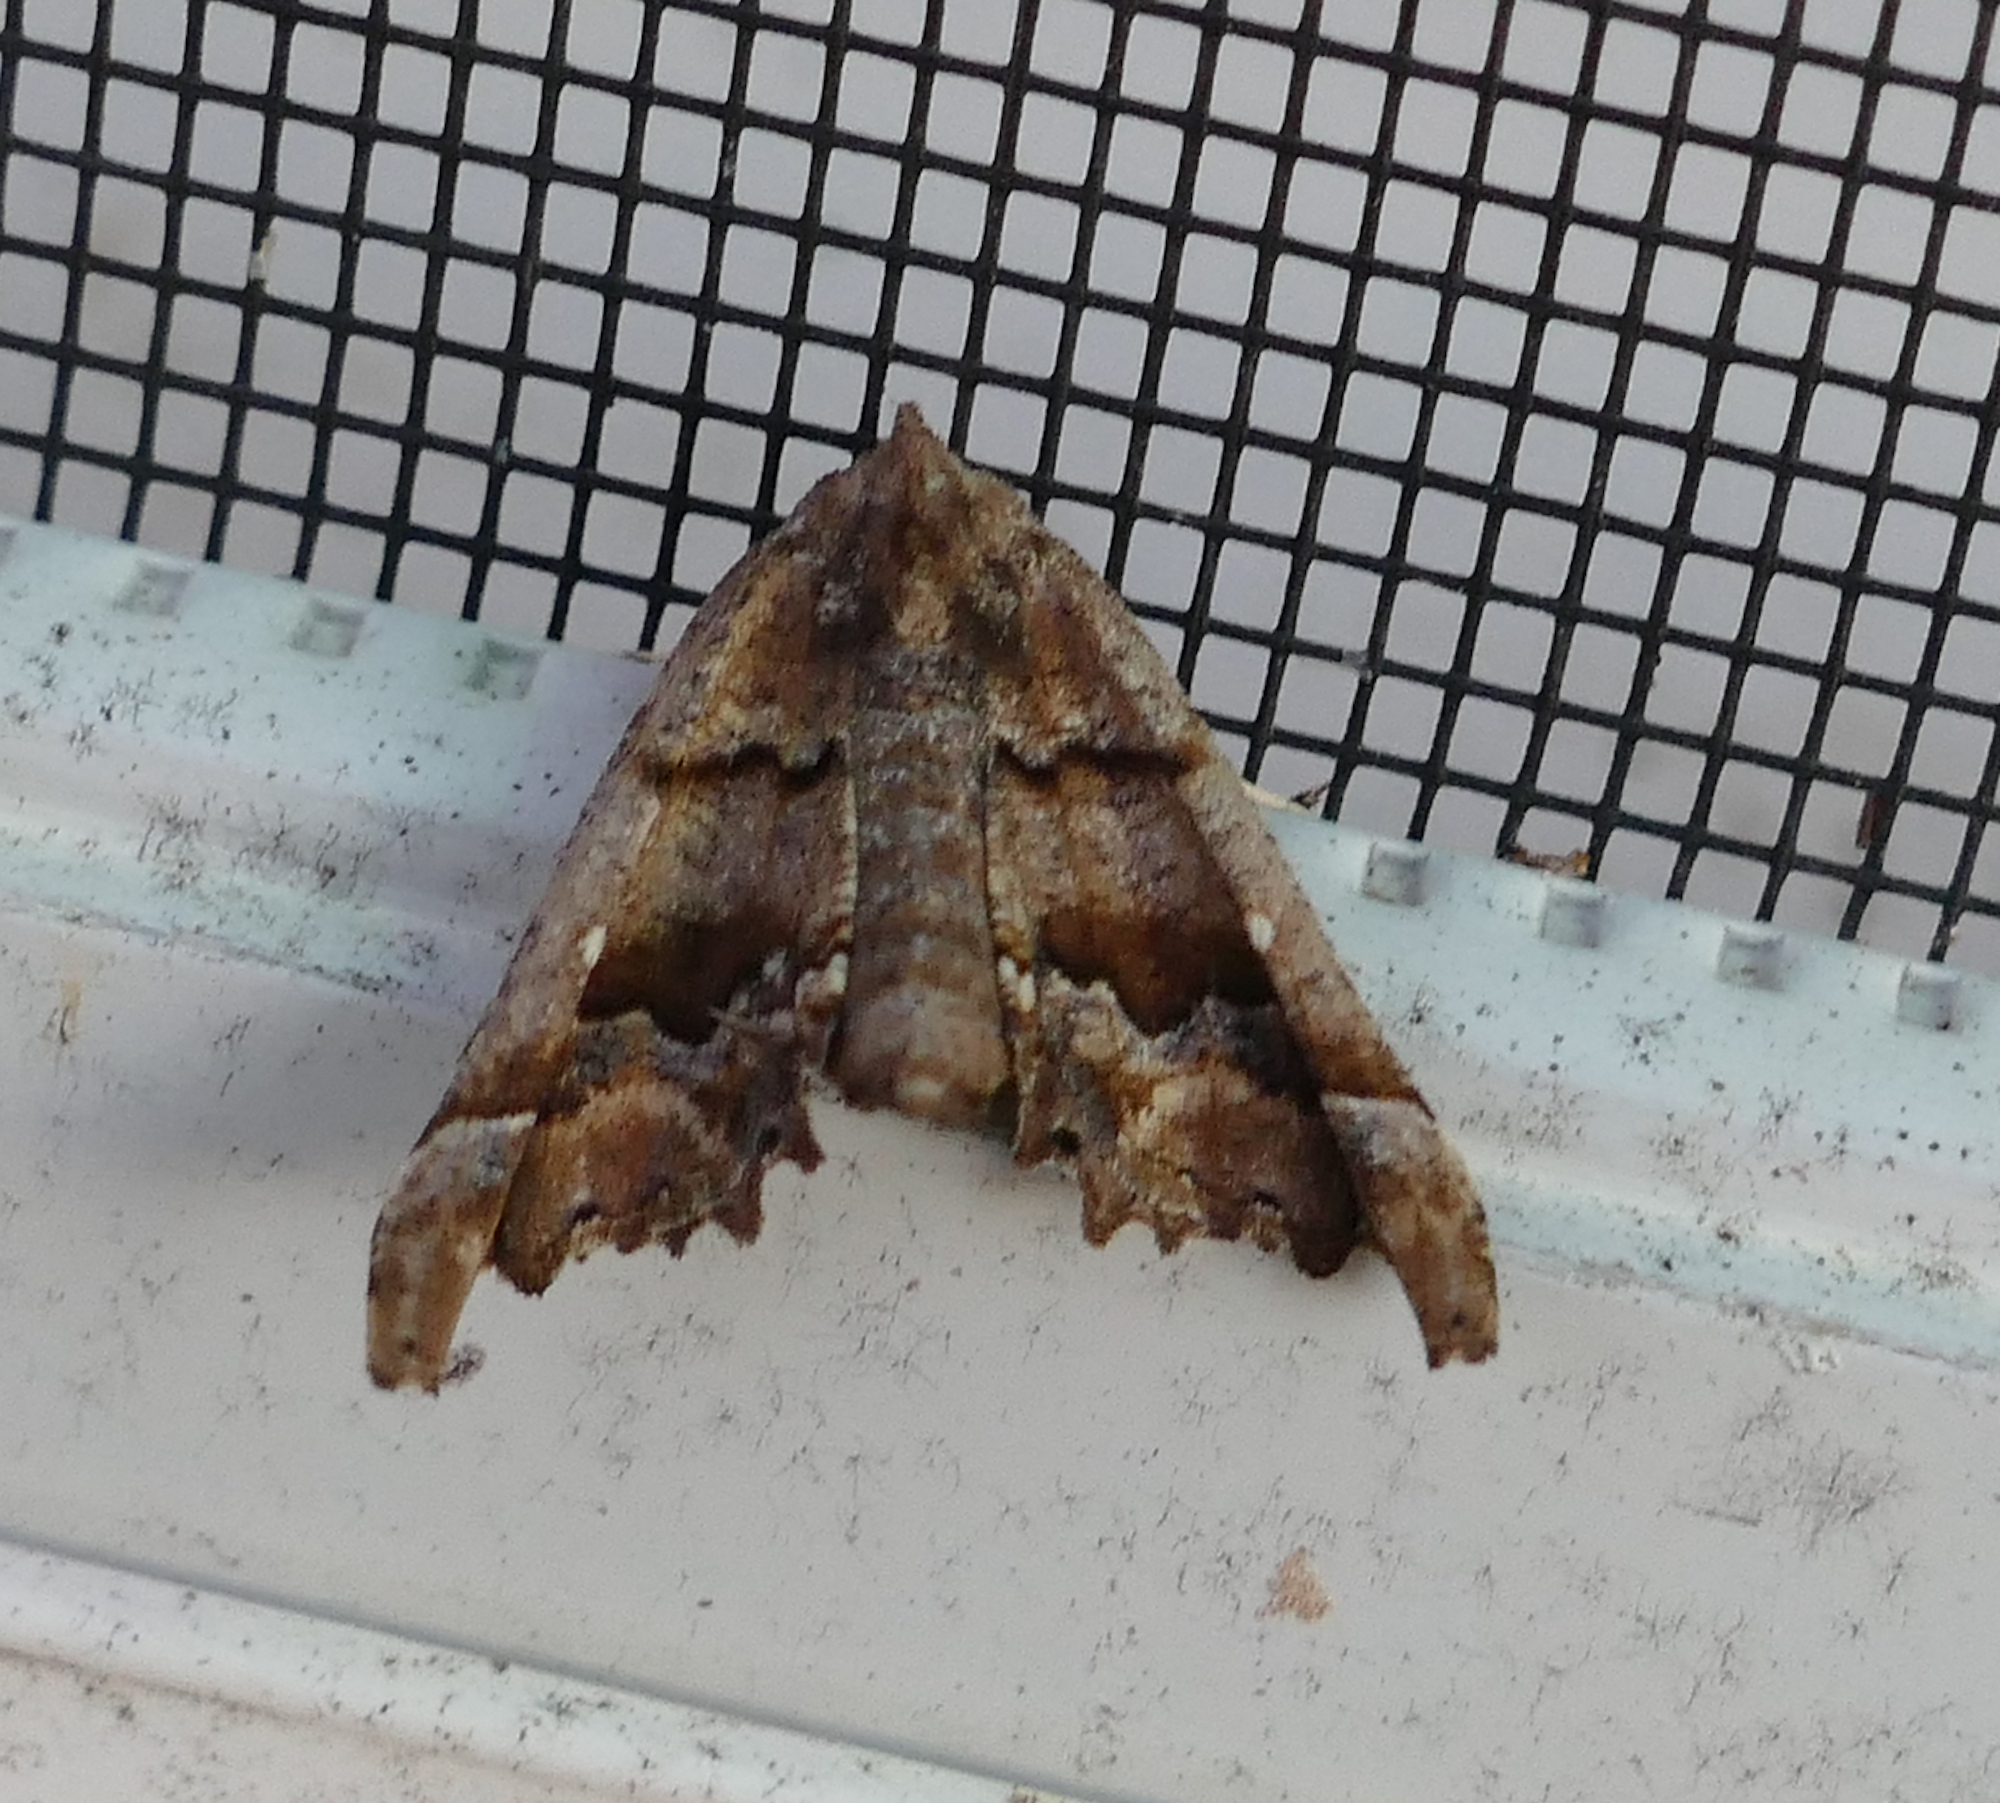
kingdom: Animalia
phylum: Arthropoda
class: Insecta
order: Lepidoptera
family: Geometridae
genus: Pero
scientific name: Pero meskaria
